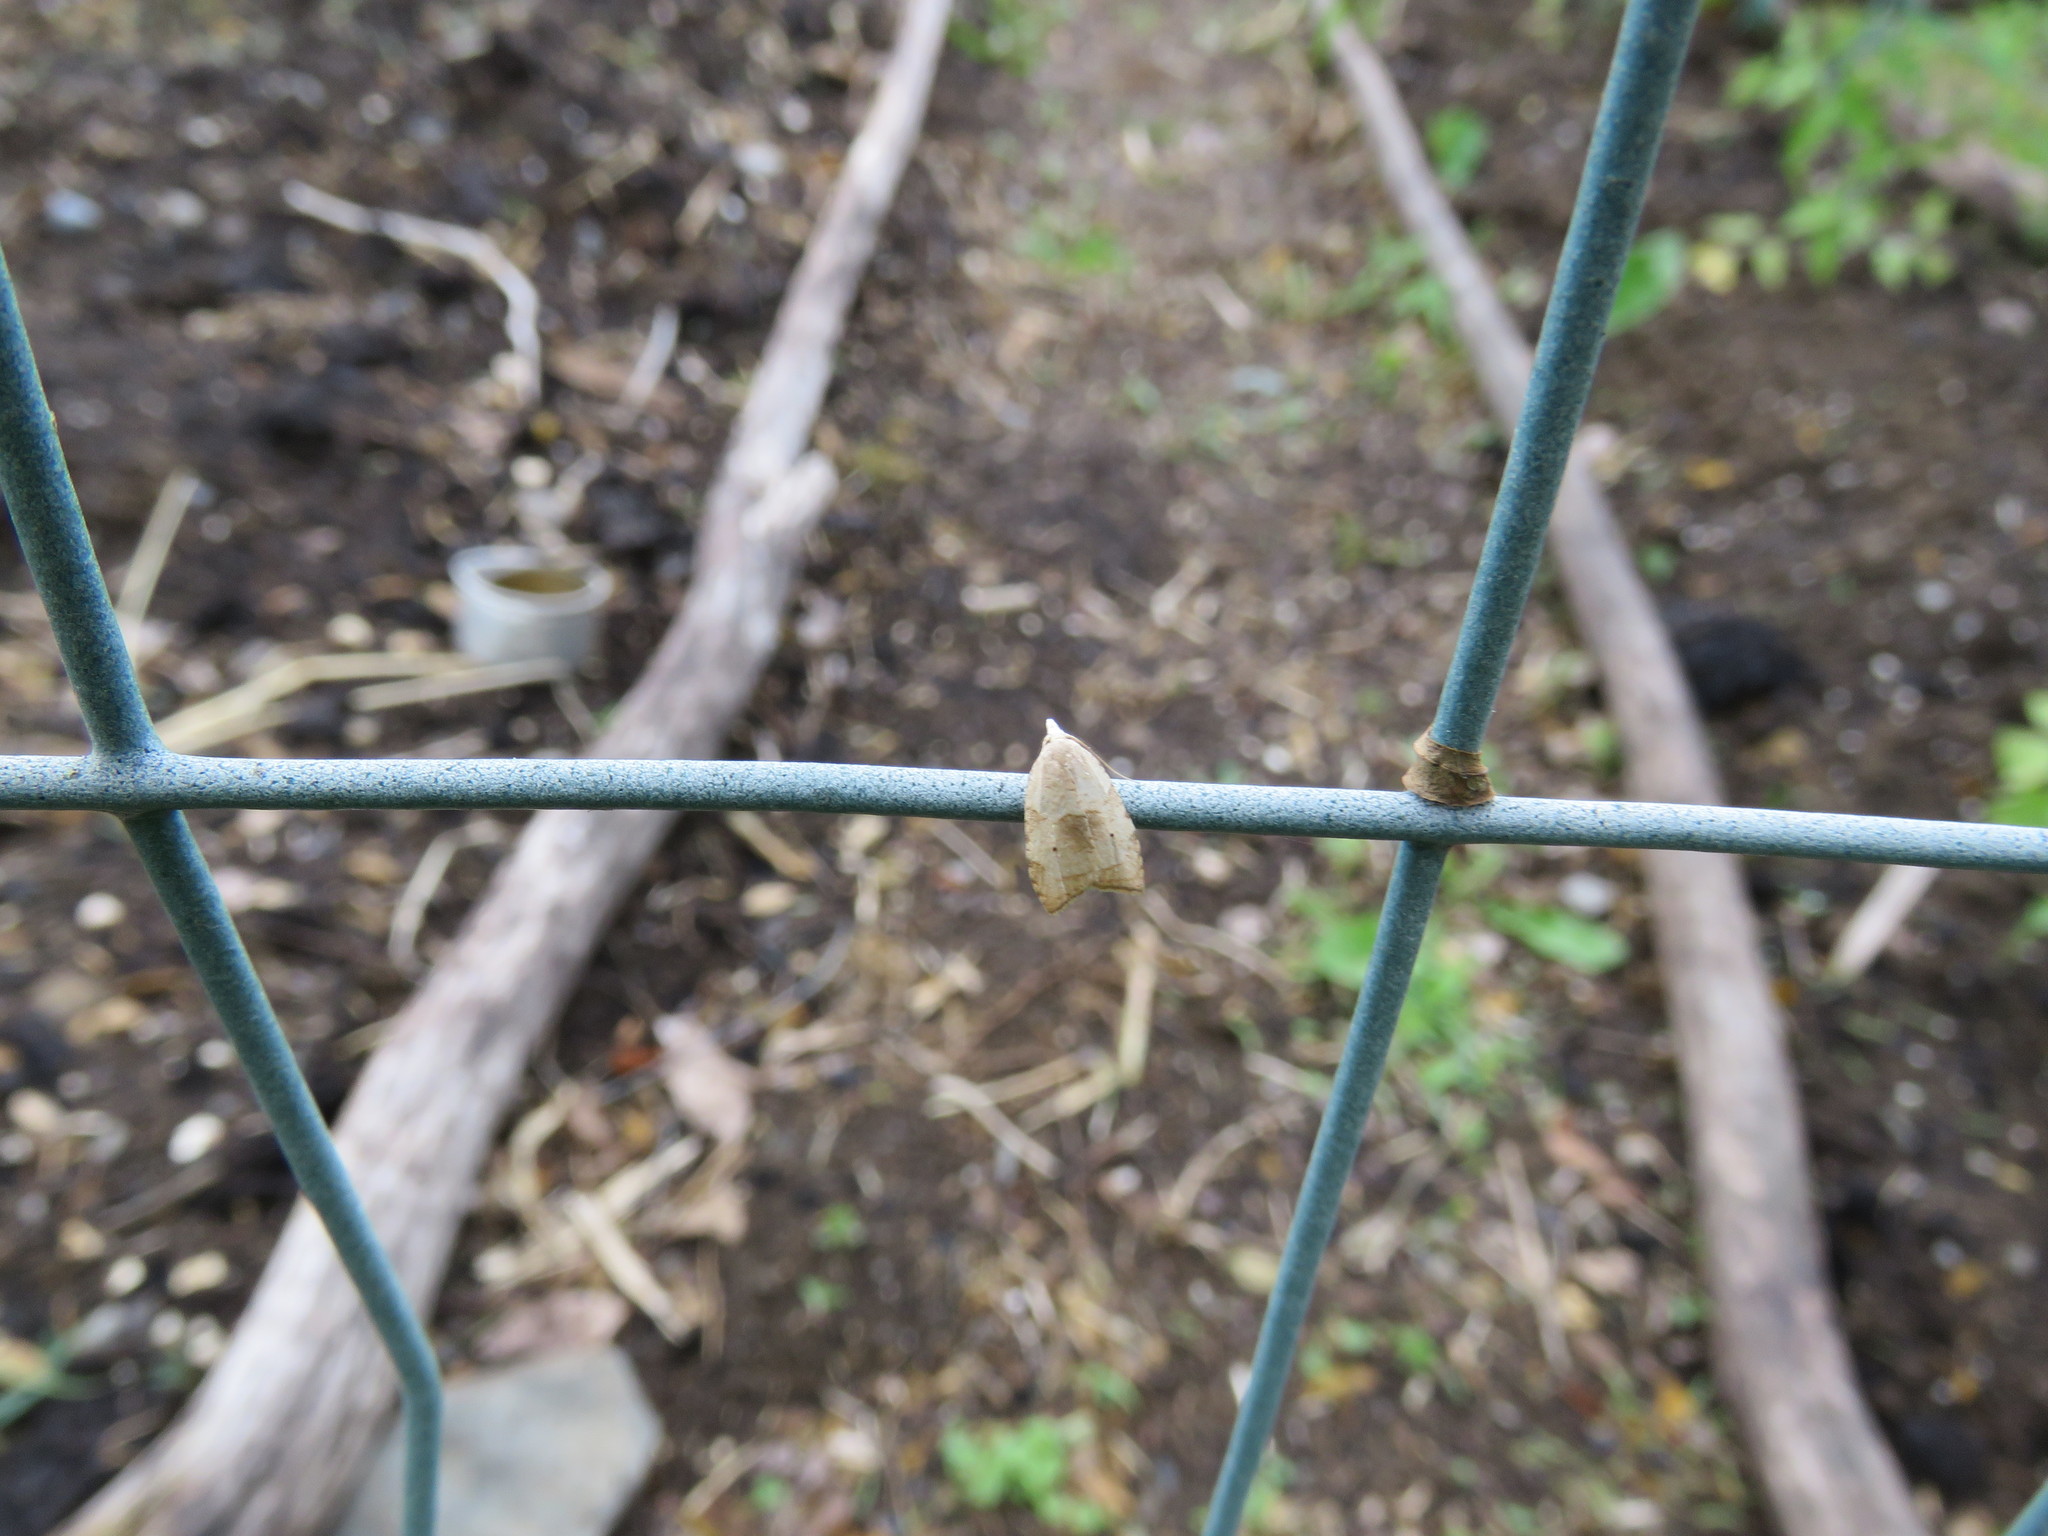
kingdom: Animalia
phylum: Arthropoda
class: Insecta
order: Lepidoptera
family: Tortricidae
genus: Coelostathma
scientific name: Coelostathma discopunctana
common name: Batman moth
